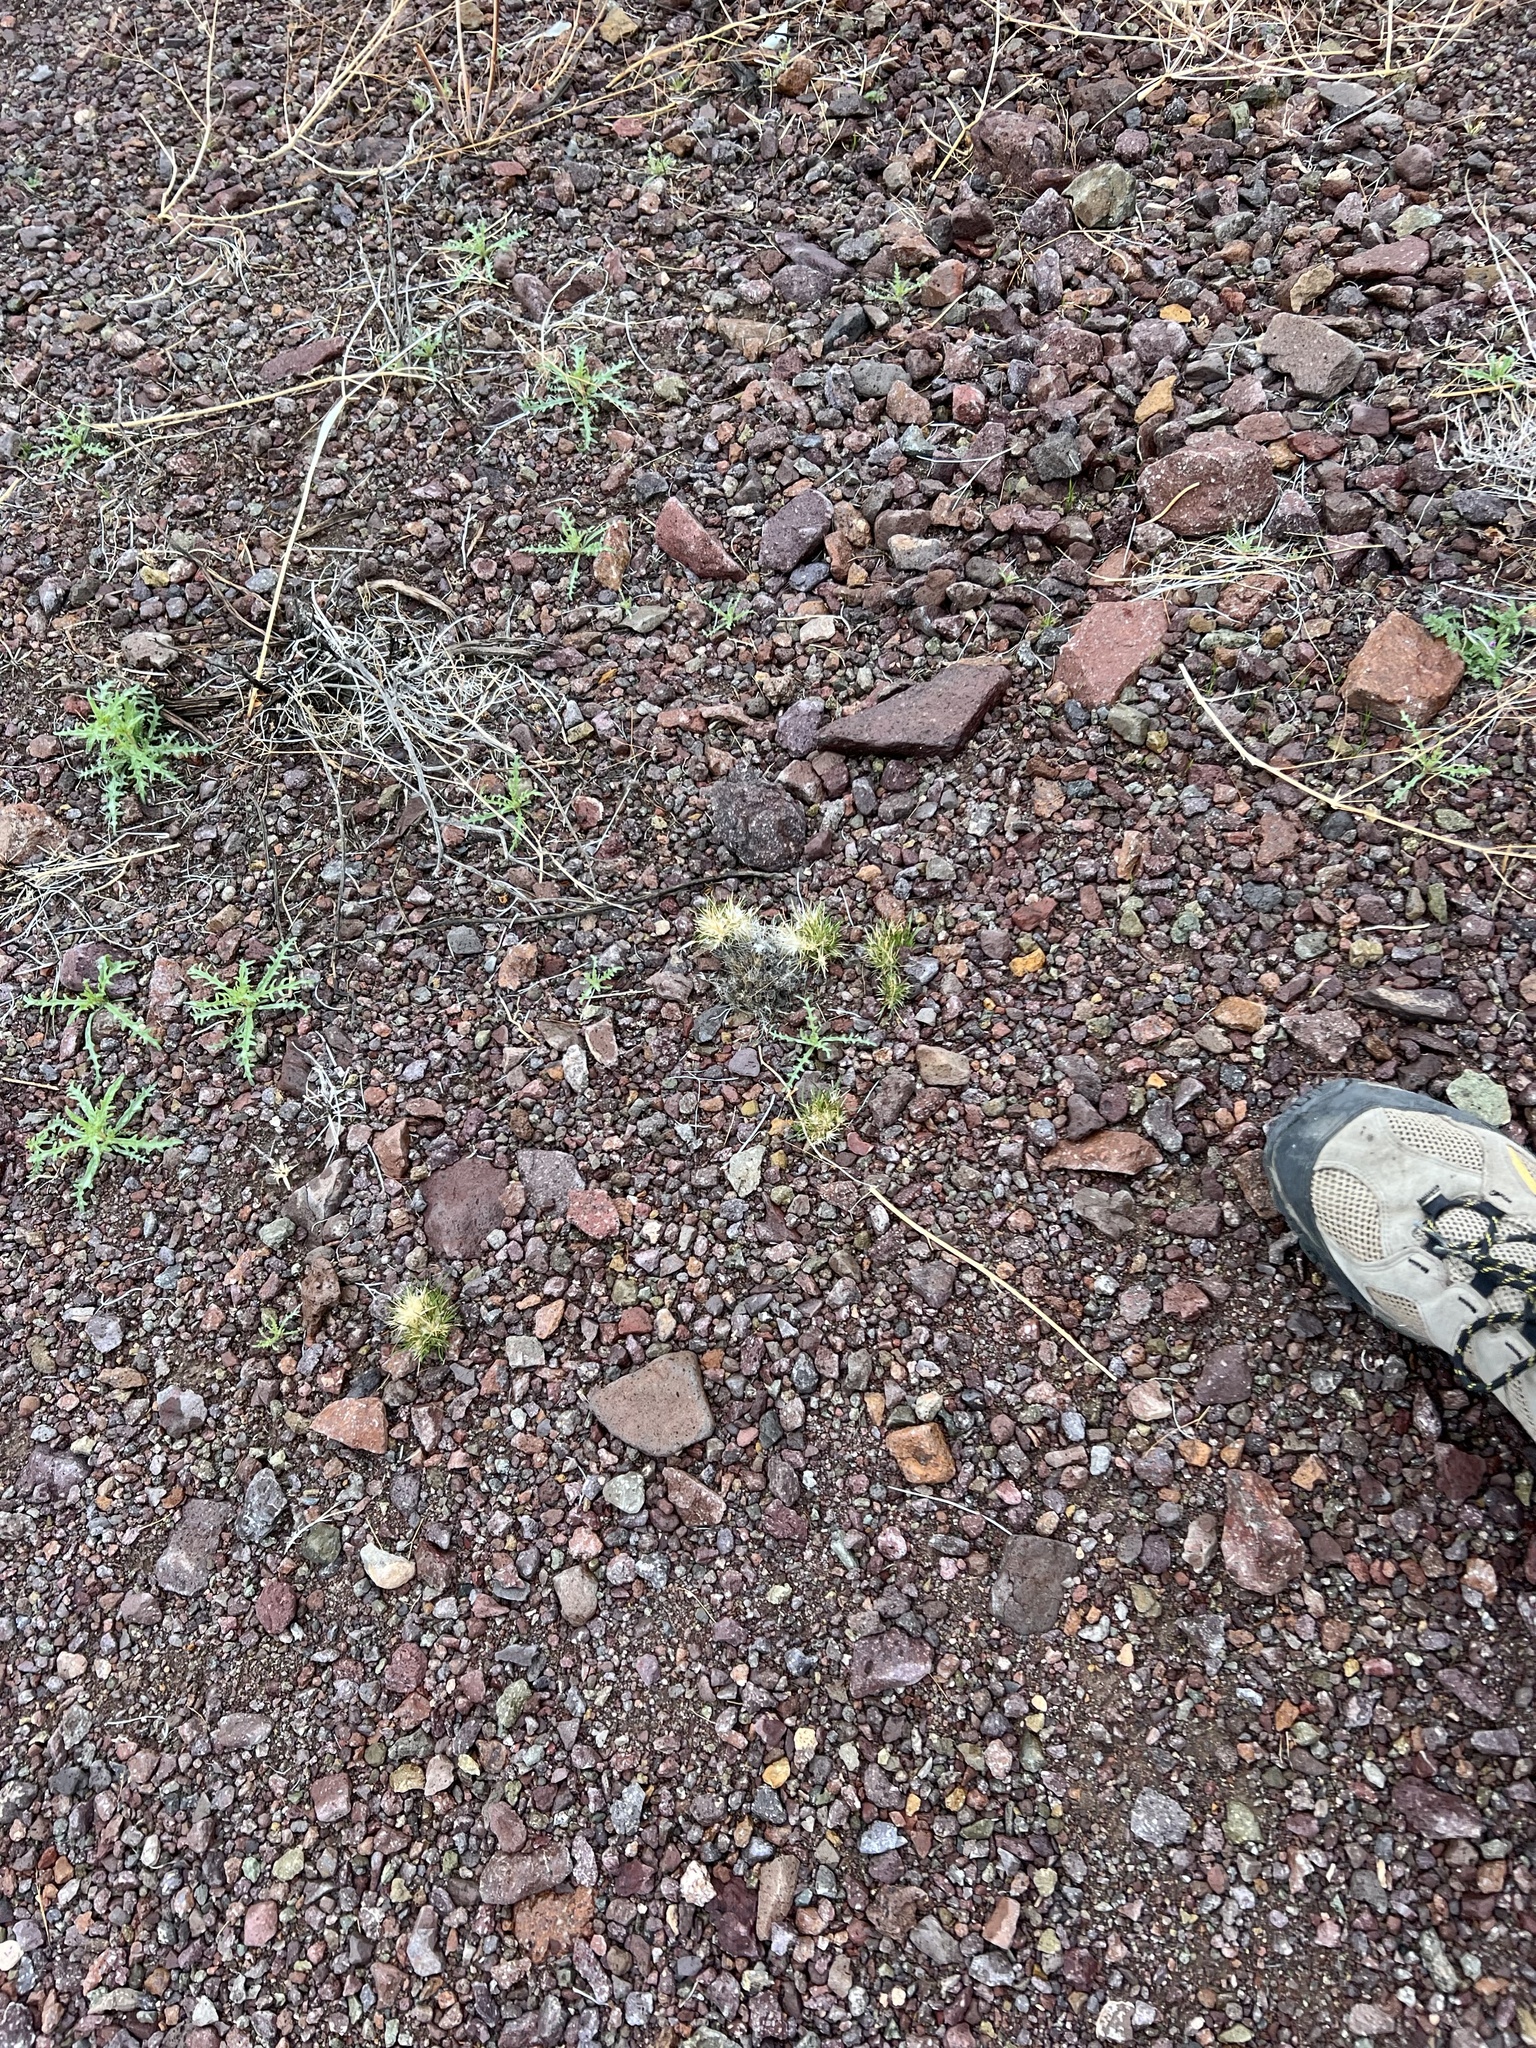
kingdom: Plantae
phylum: Tracheophyta
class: Liliopsida
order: Poales
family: Poaceae
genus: Dasyochloa
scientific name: Dasyochloa pulchella
